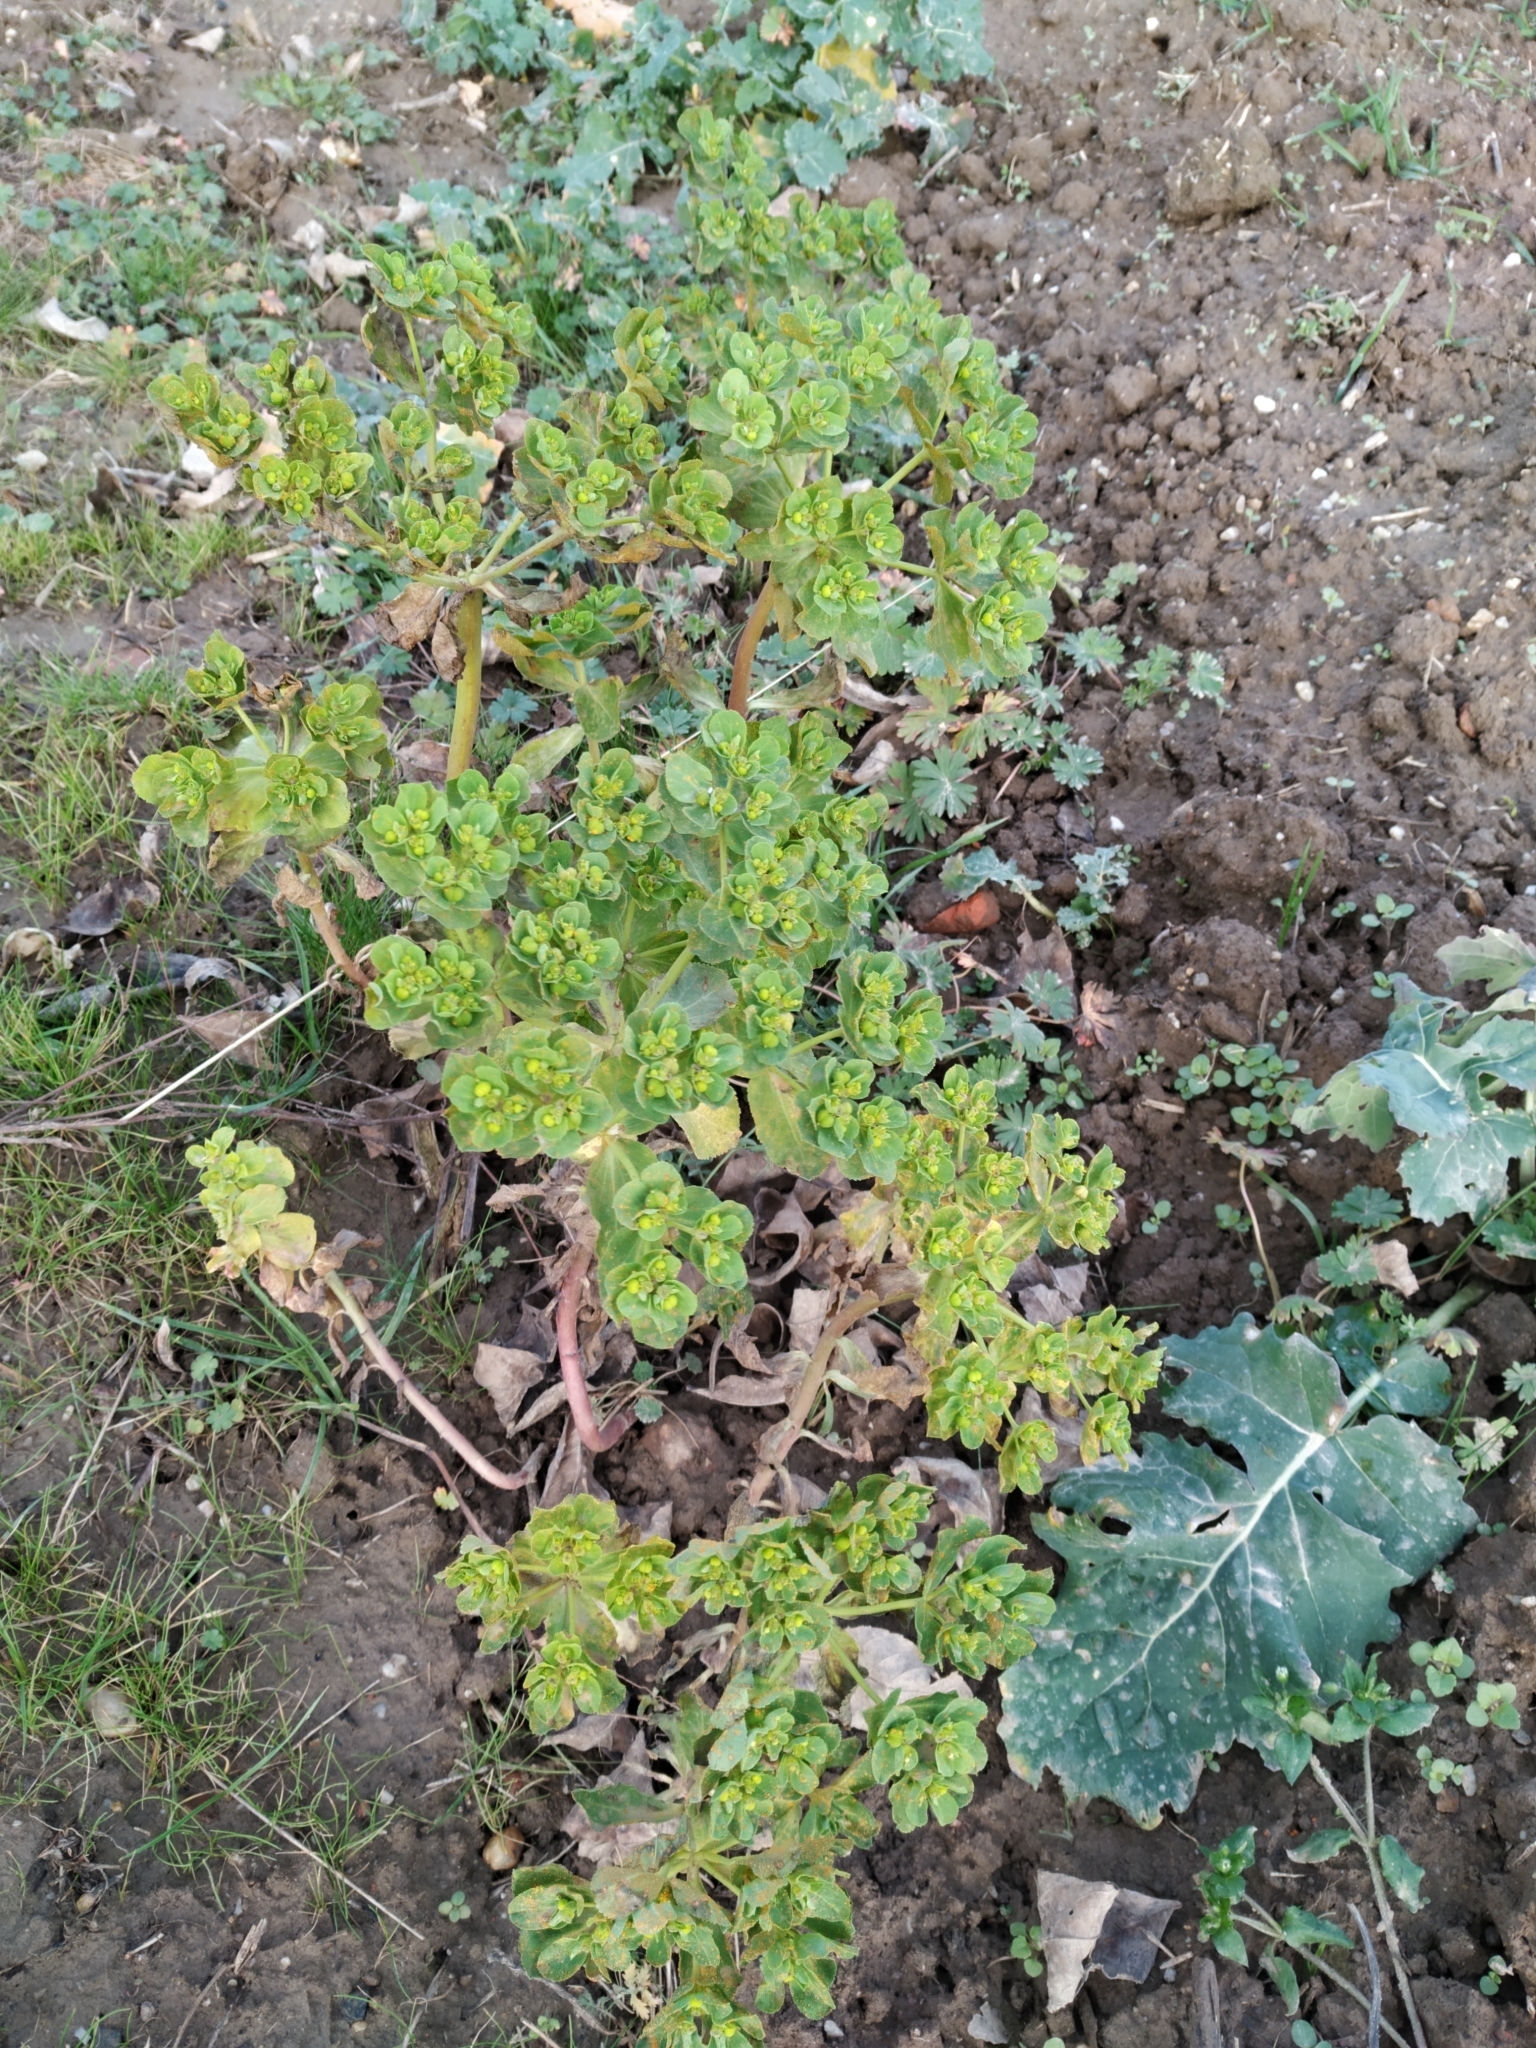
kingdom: Plantae
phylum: Tracheophyta
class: Magnoliopsida
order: Malpighiales
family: Euphorbiaceae
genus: Euphorbia
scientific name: Euphorbia helioscopia
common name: Sun spurge
